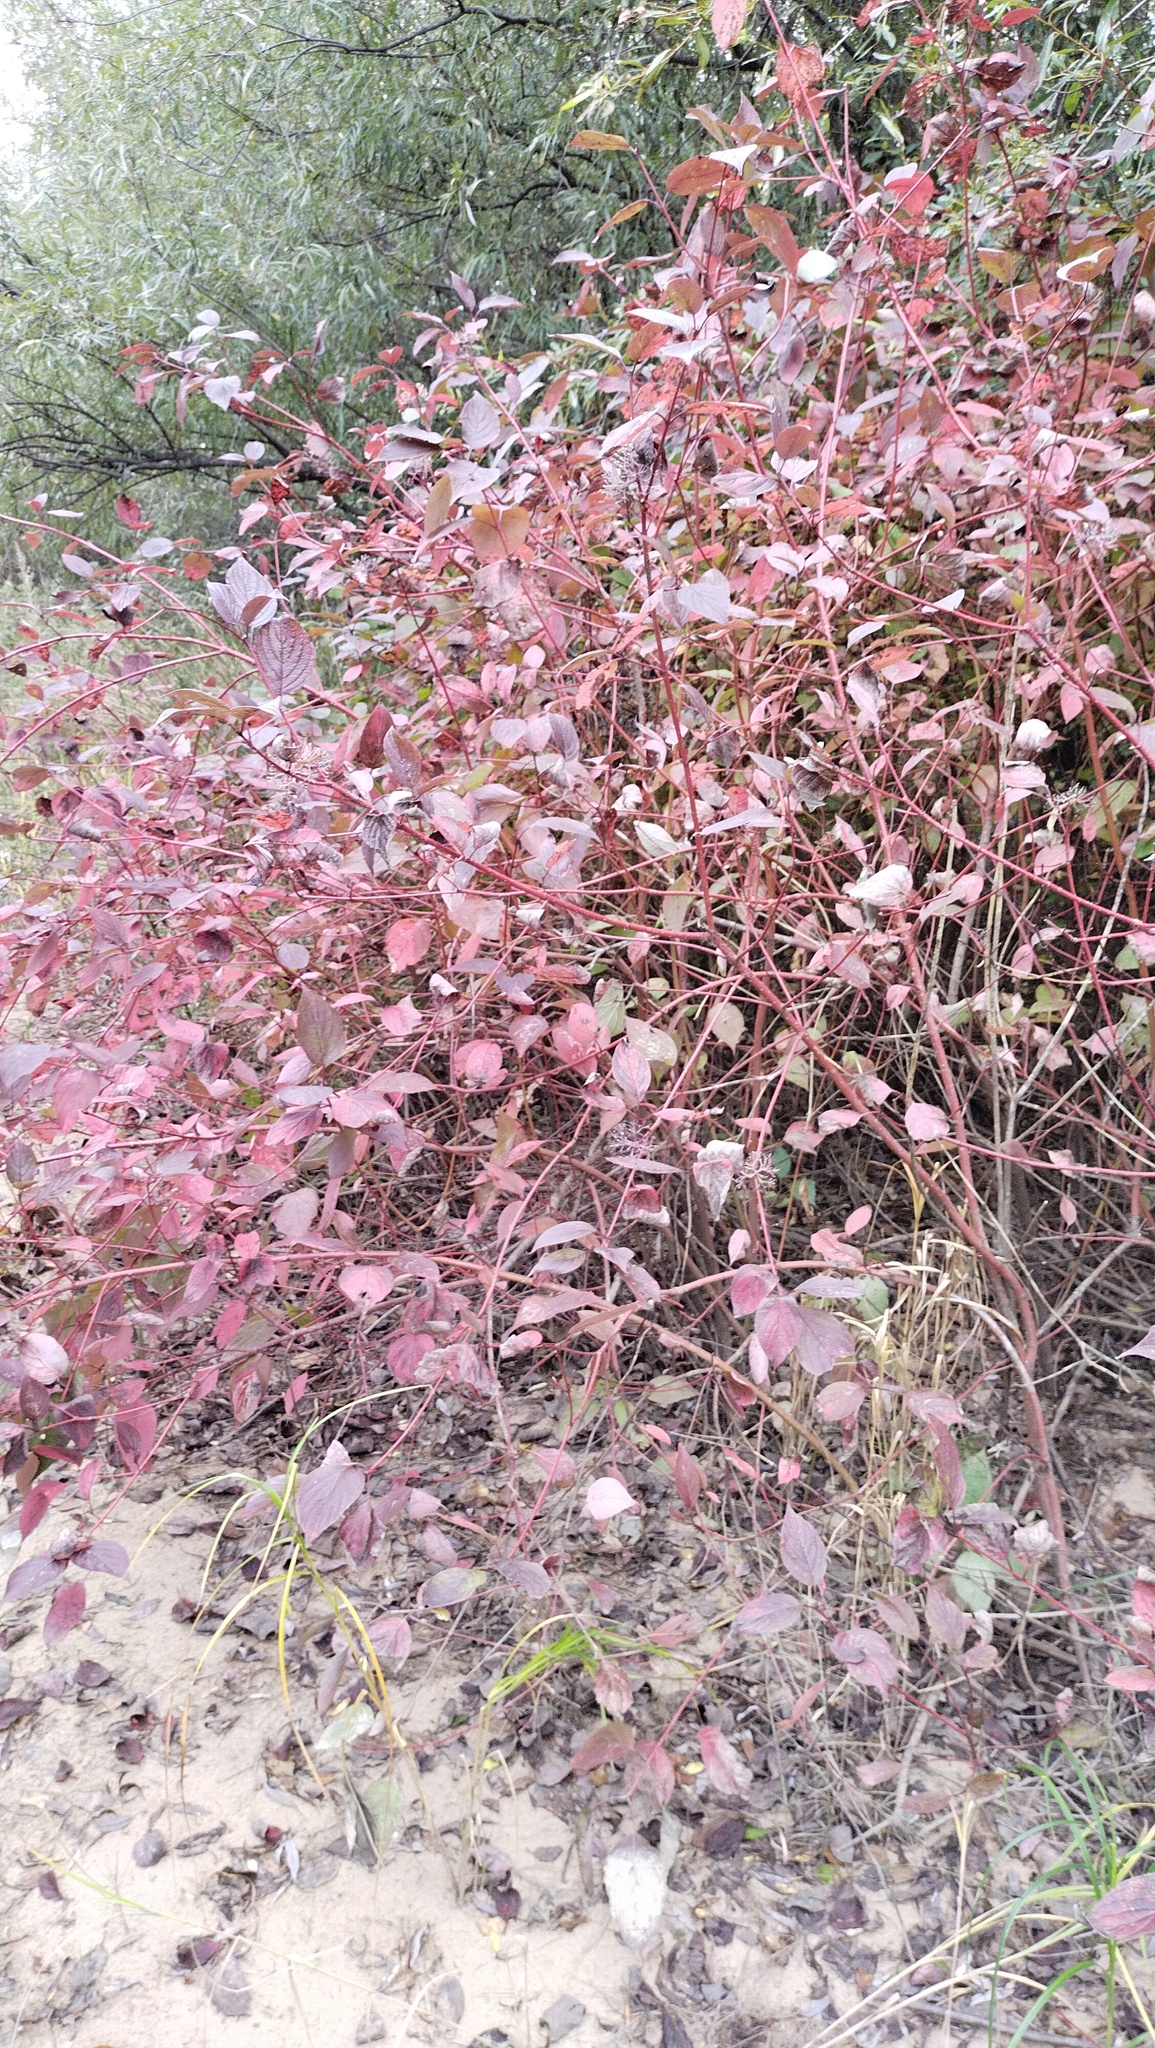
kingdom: Plantae
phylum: Tracheophyta
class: Magnoliopsida
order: Cornales
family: Cornaceae
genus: Cornus
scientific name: Cornus alba
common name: White dogwood
